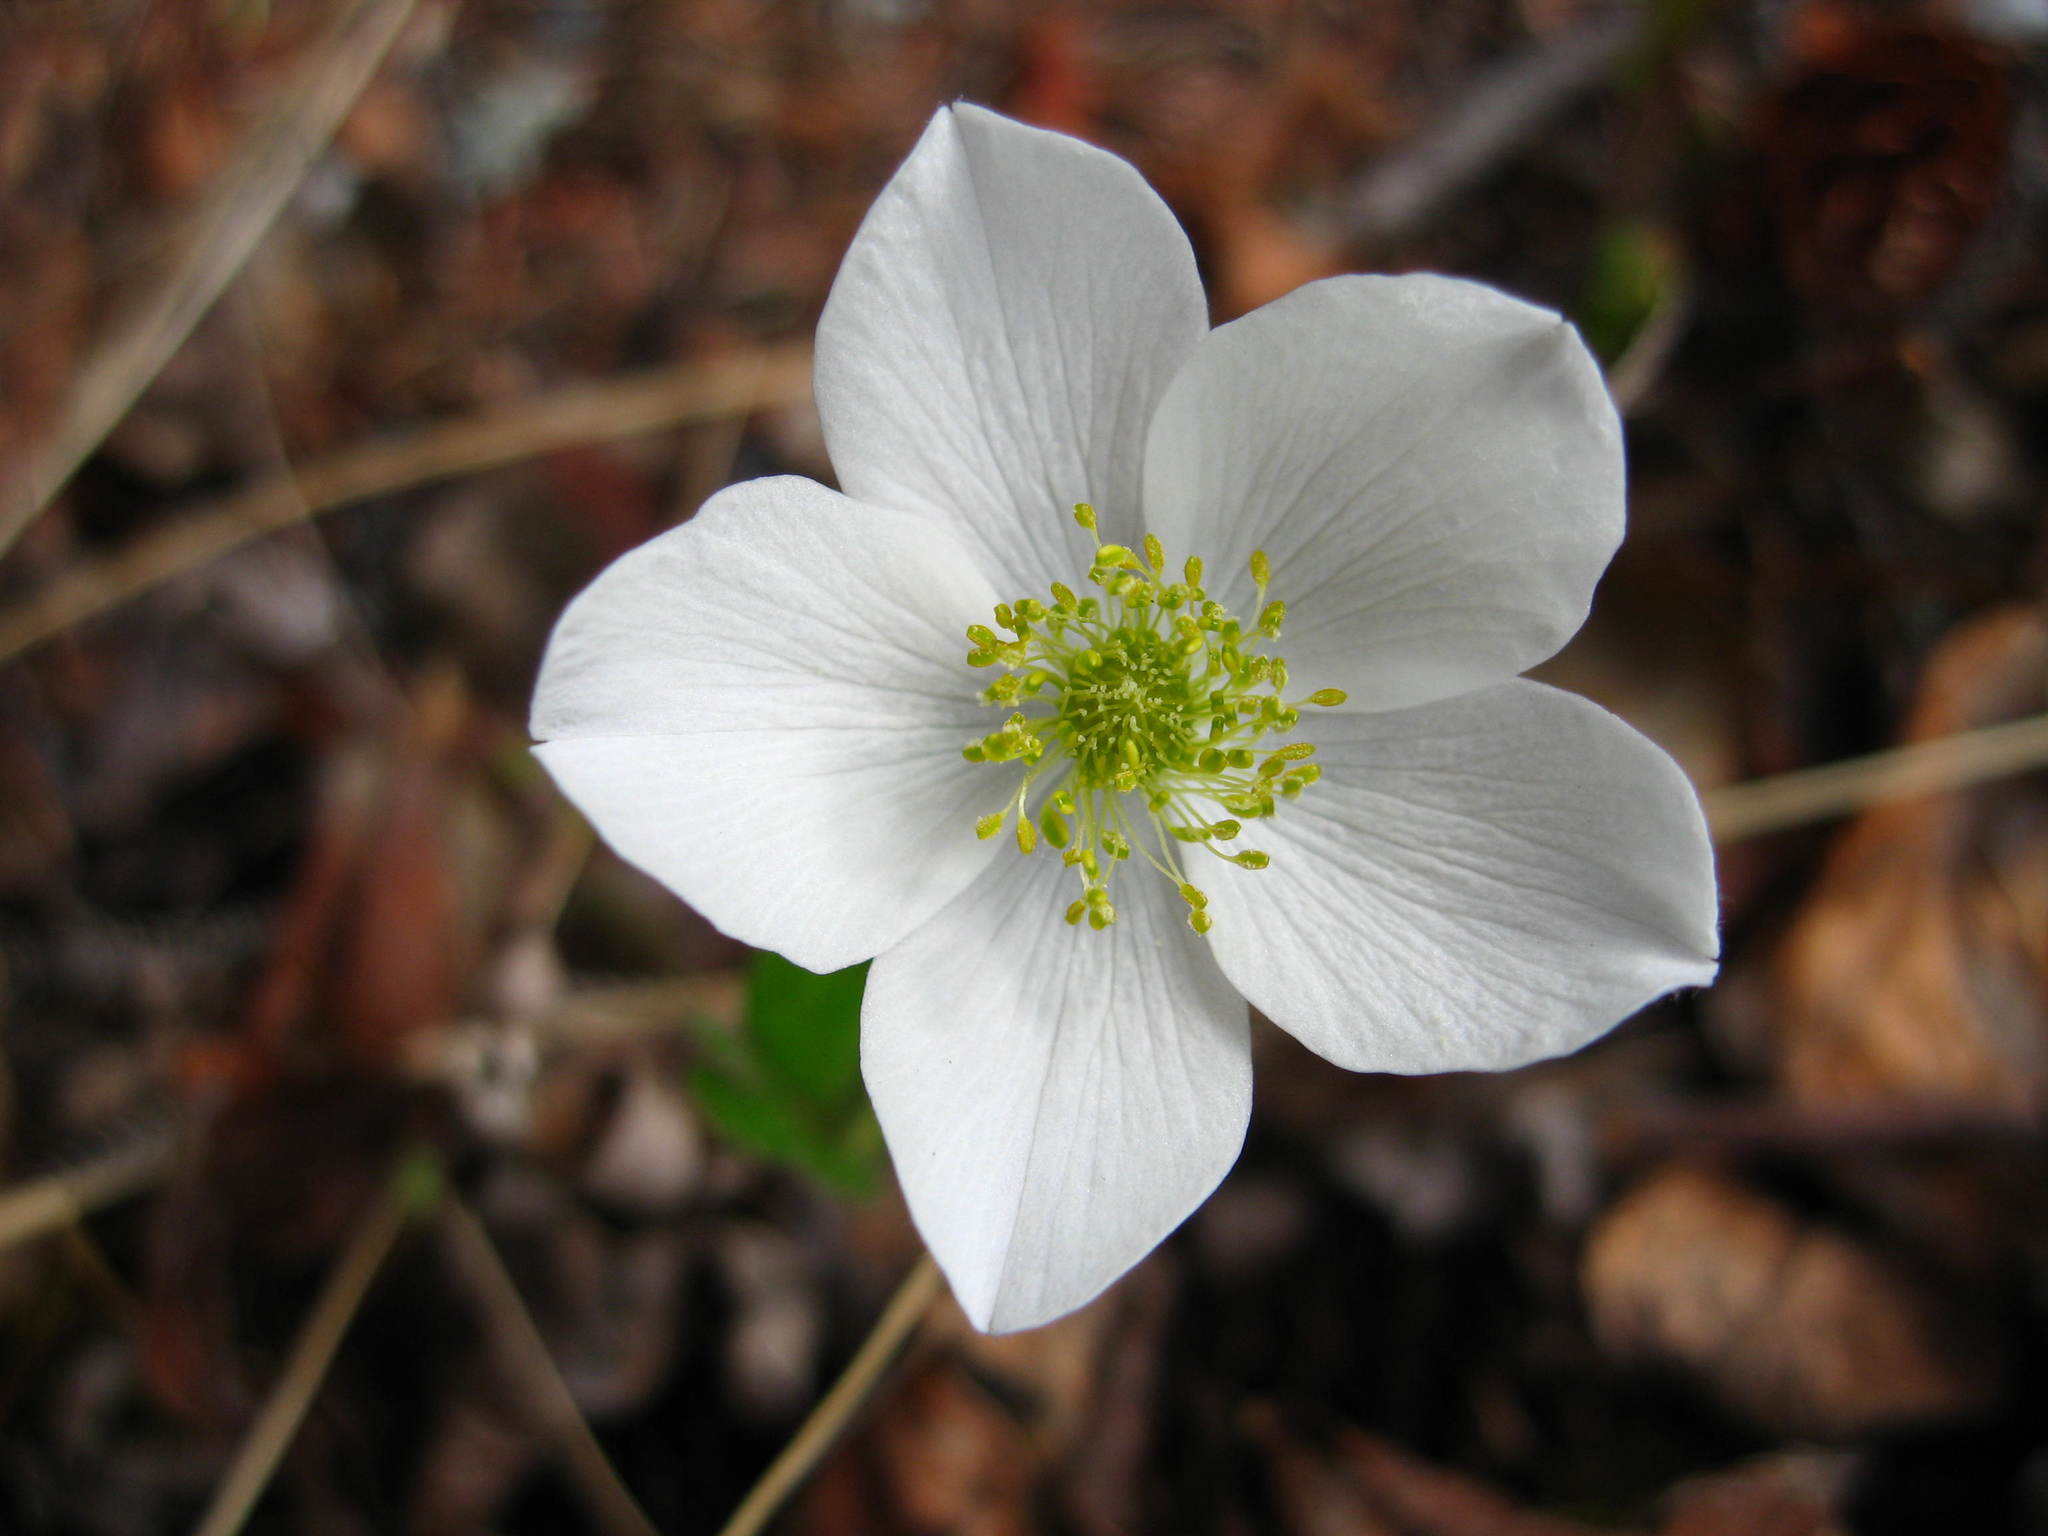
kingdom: Plantae
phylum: Tracheophyta
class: Magnoliopsida
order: Ranunculales
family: Ranunculaceae
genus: Anemone
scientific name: Anemone parviflora
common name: Northern anemone
